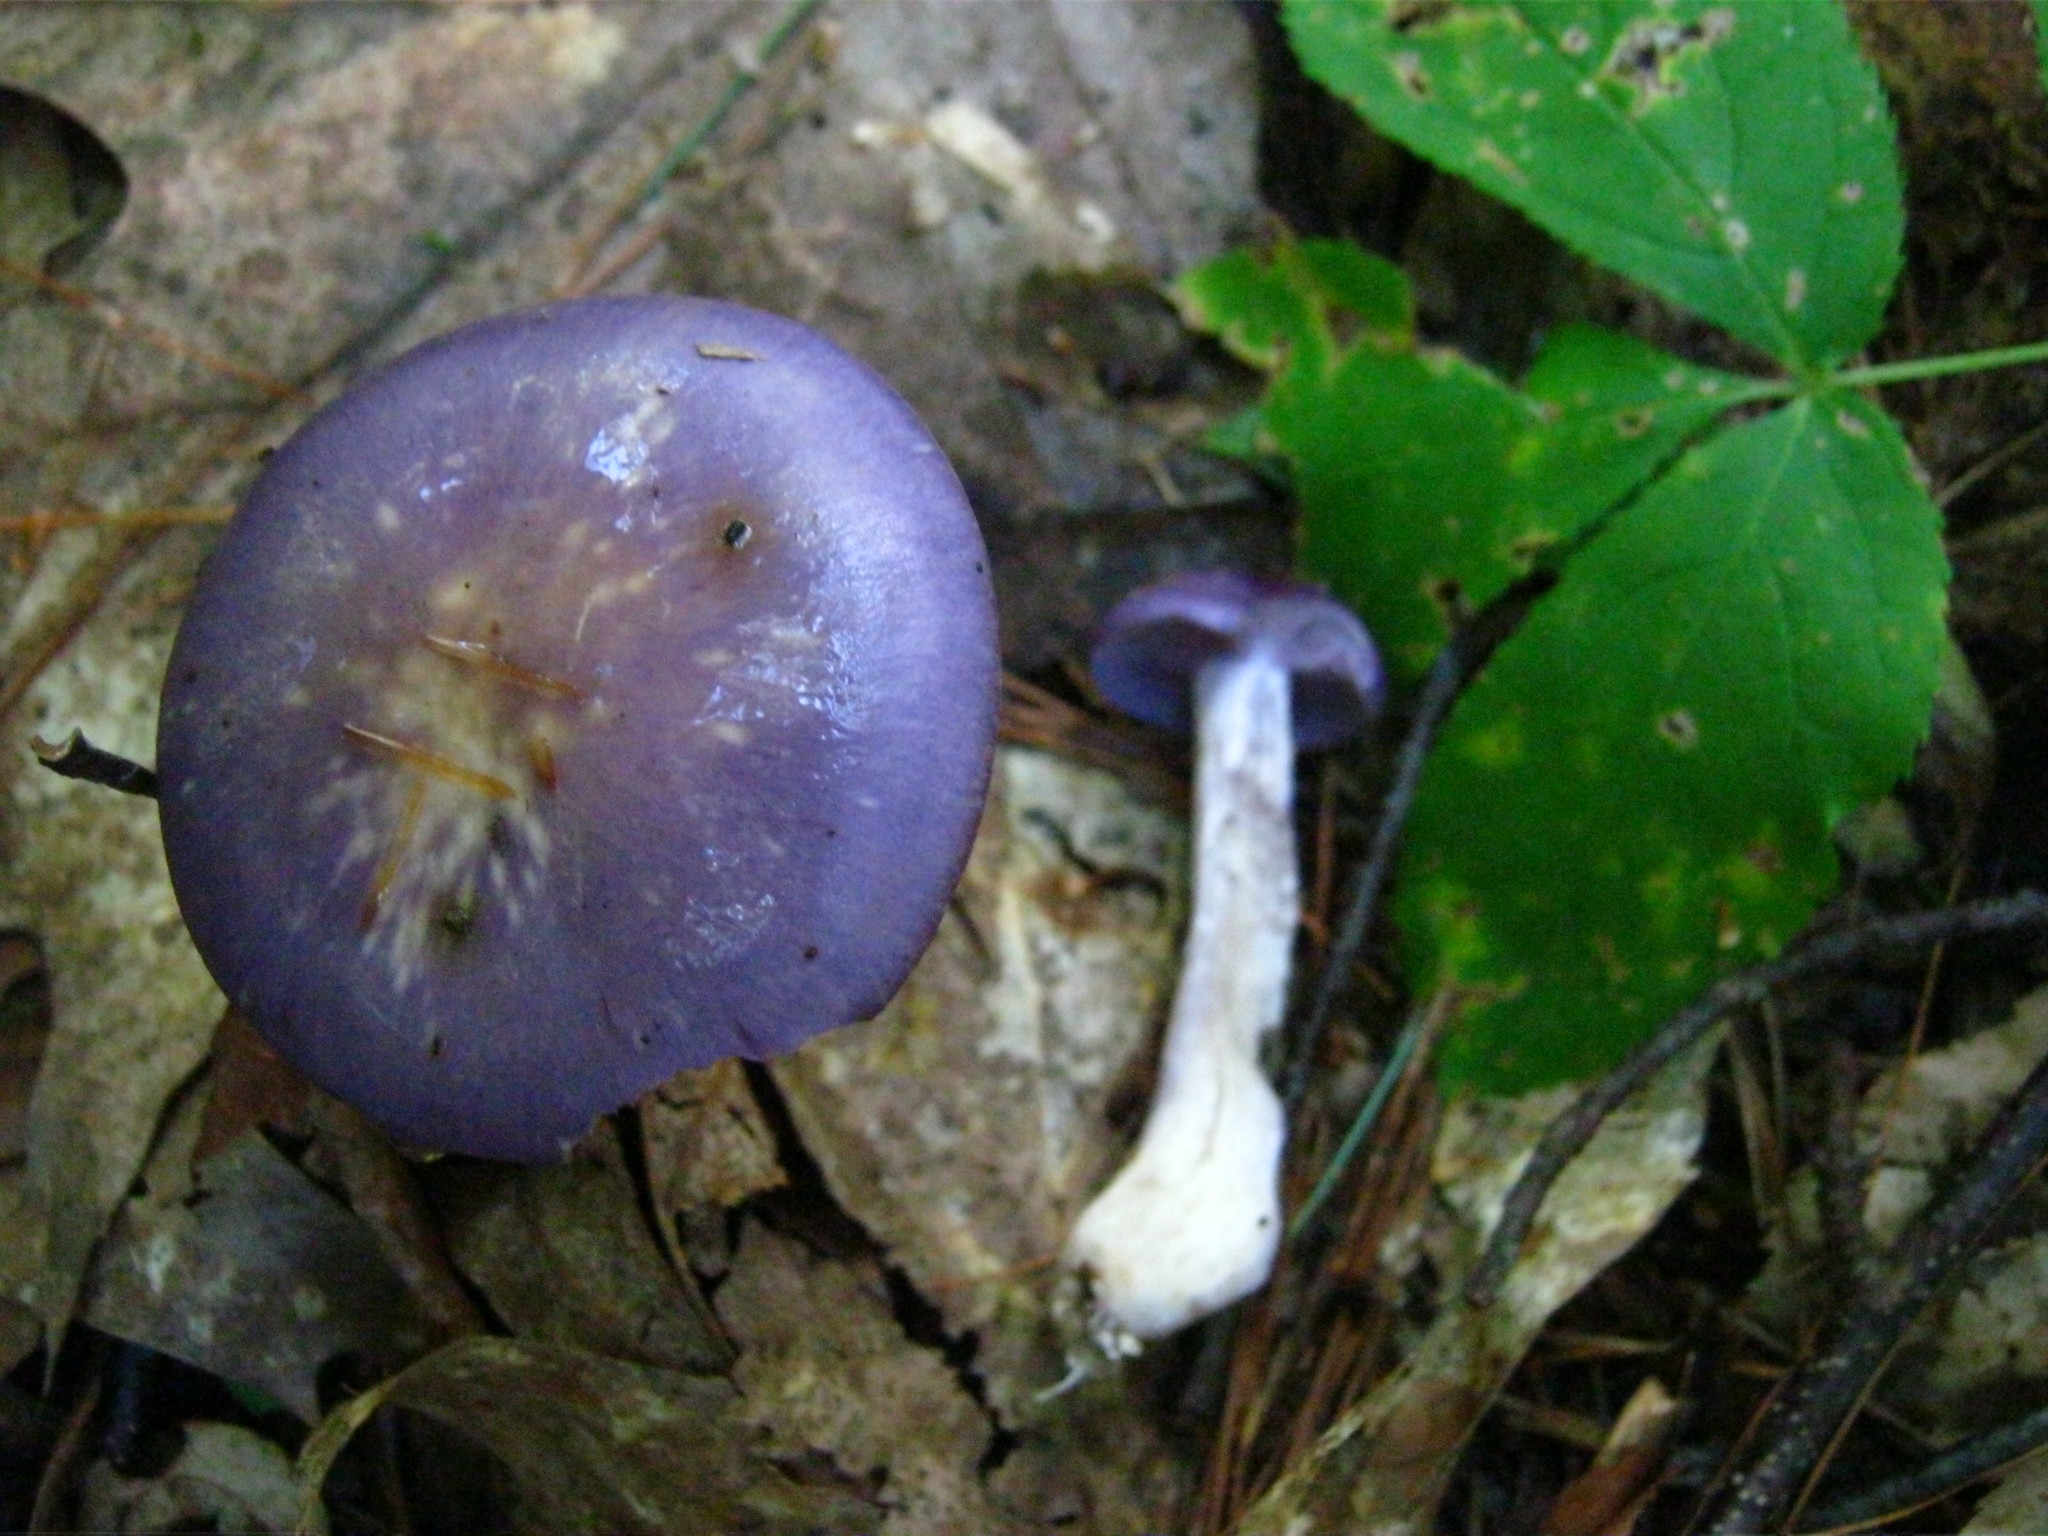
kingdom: Fungi
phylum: Basidiomycota
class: Agaricomycetes
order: Agaricales
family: Cortinariaceae
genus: Cortinarius
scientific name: Cortinarius iodes
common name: Viscid violet cort
